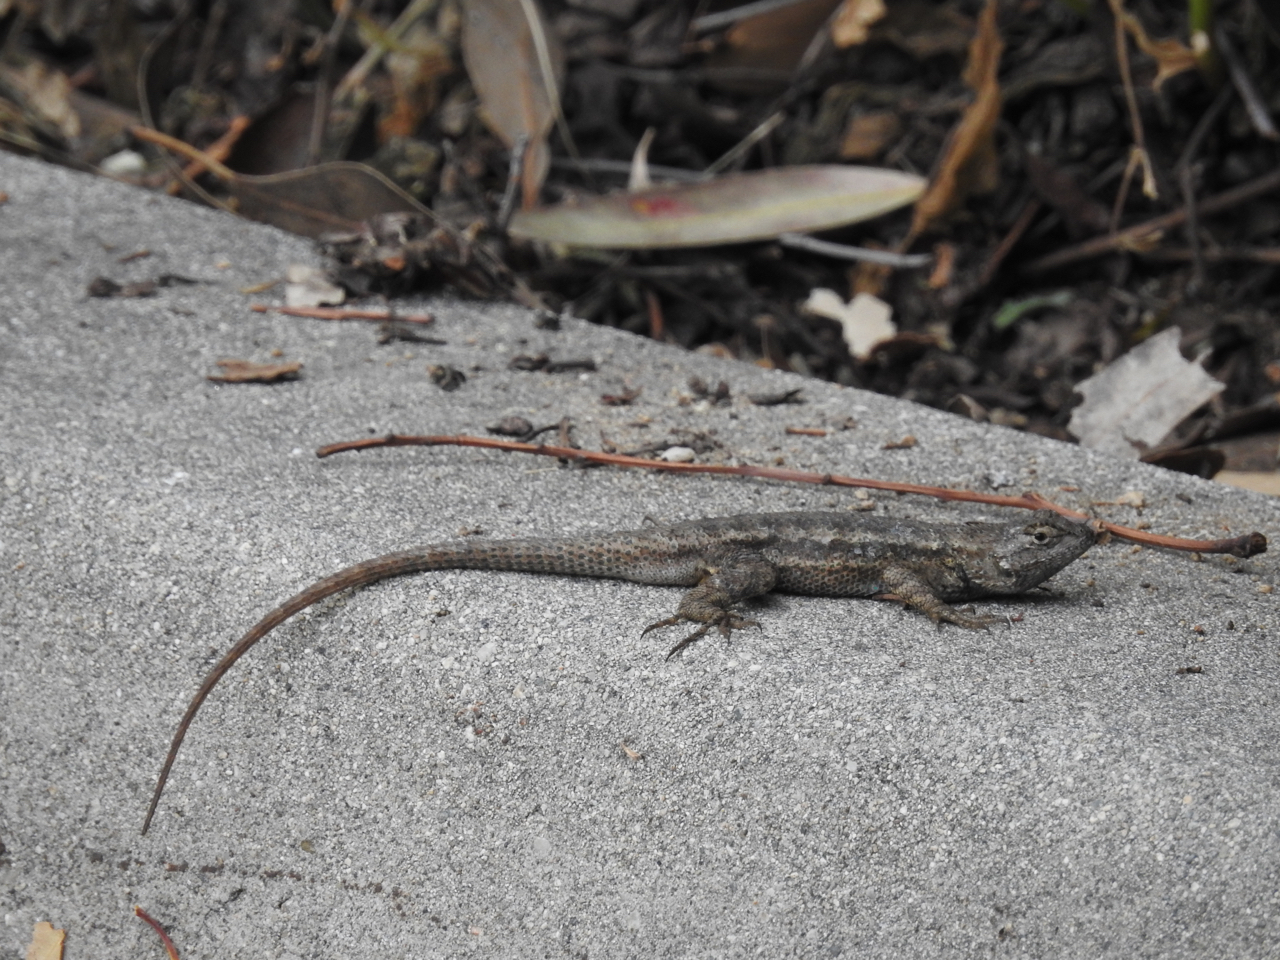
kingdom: Animalia
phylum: Chordata
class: Squamata
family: Phrynosomatidae
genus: Sceloporus
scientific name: Sceloporus occidentalis
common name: Western fence lizard
